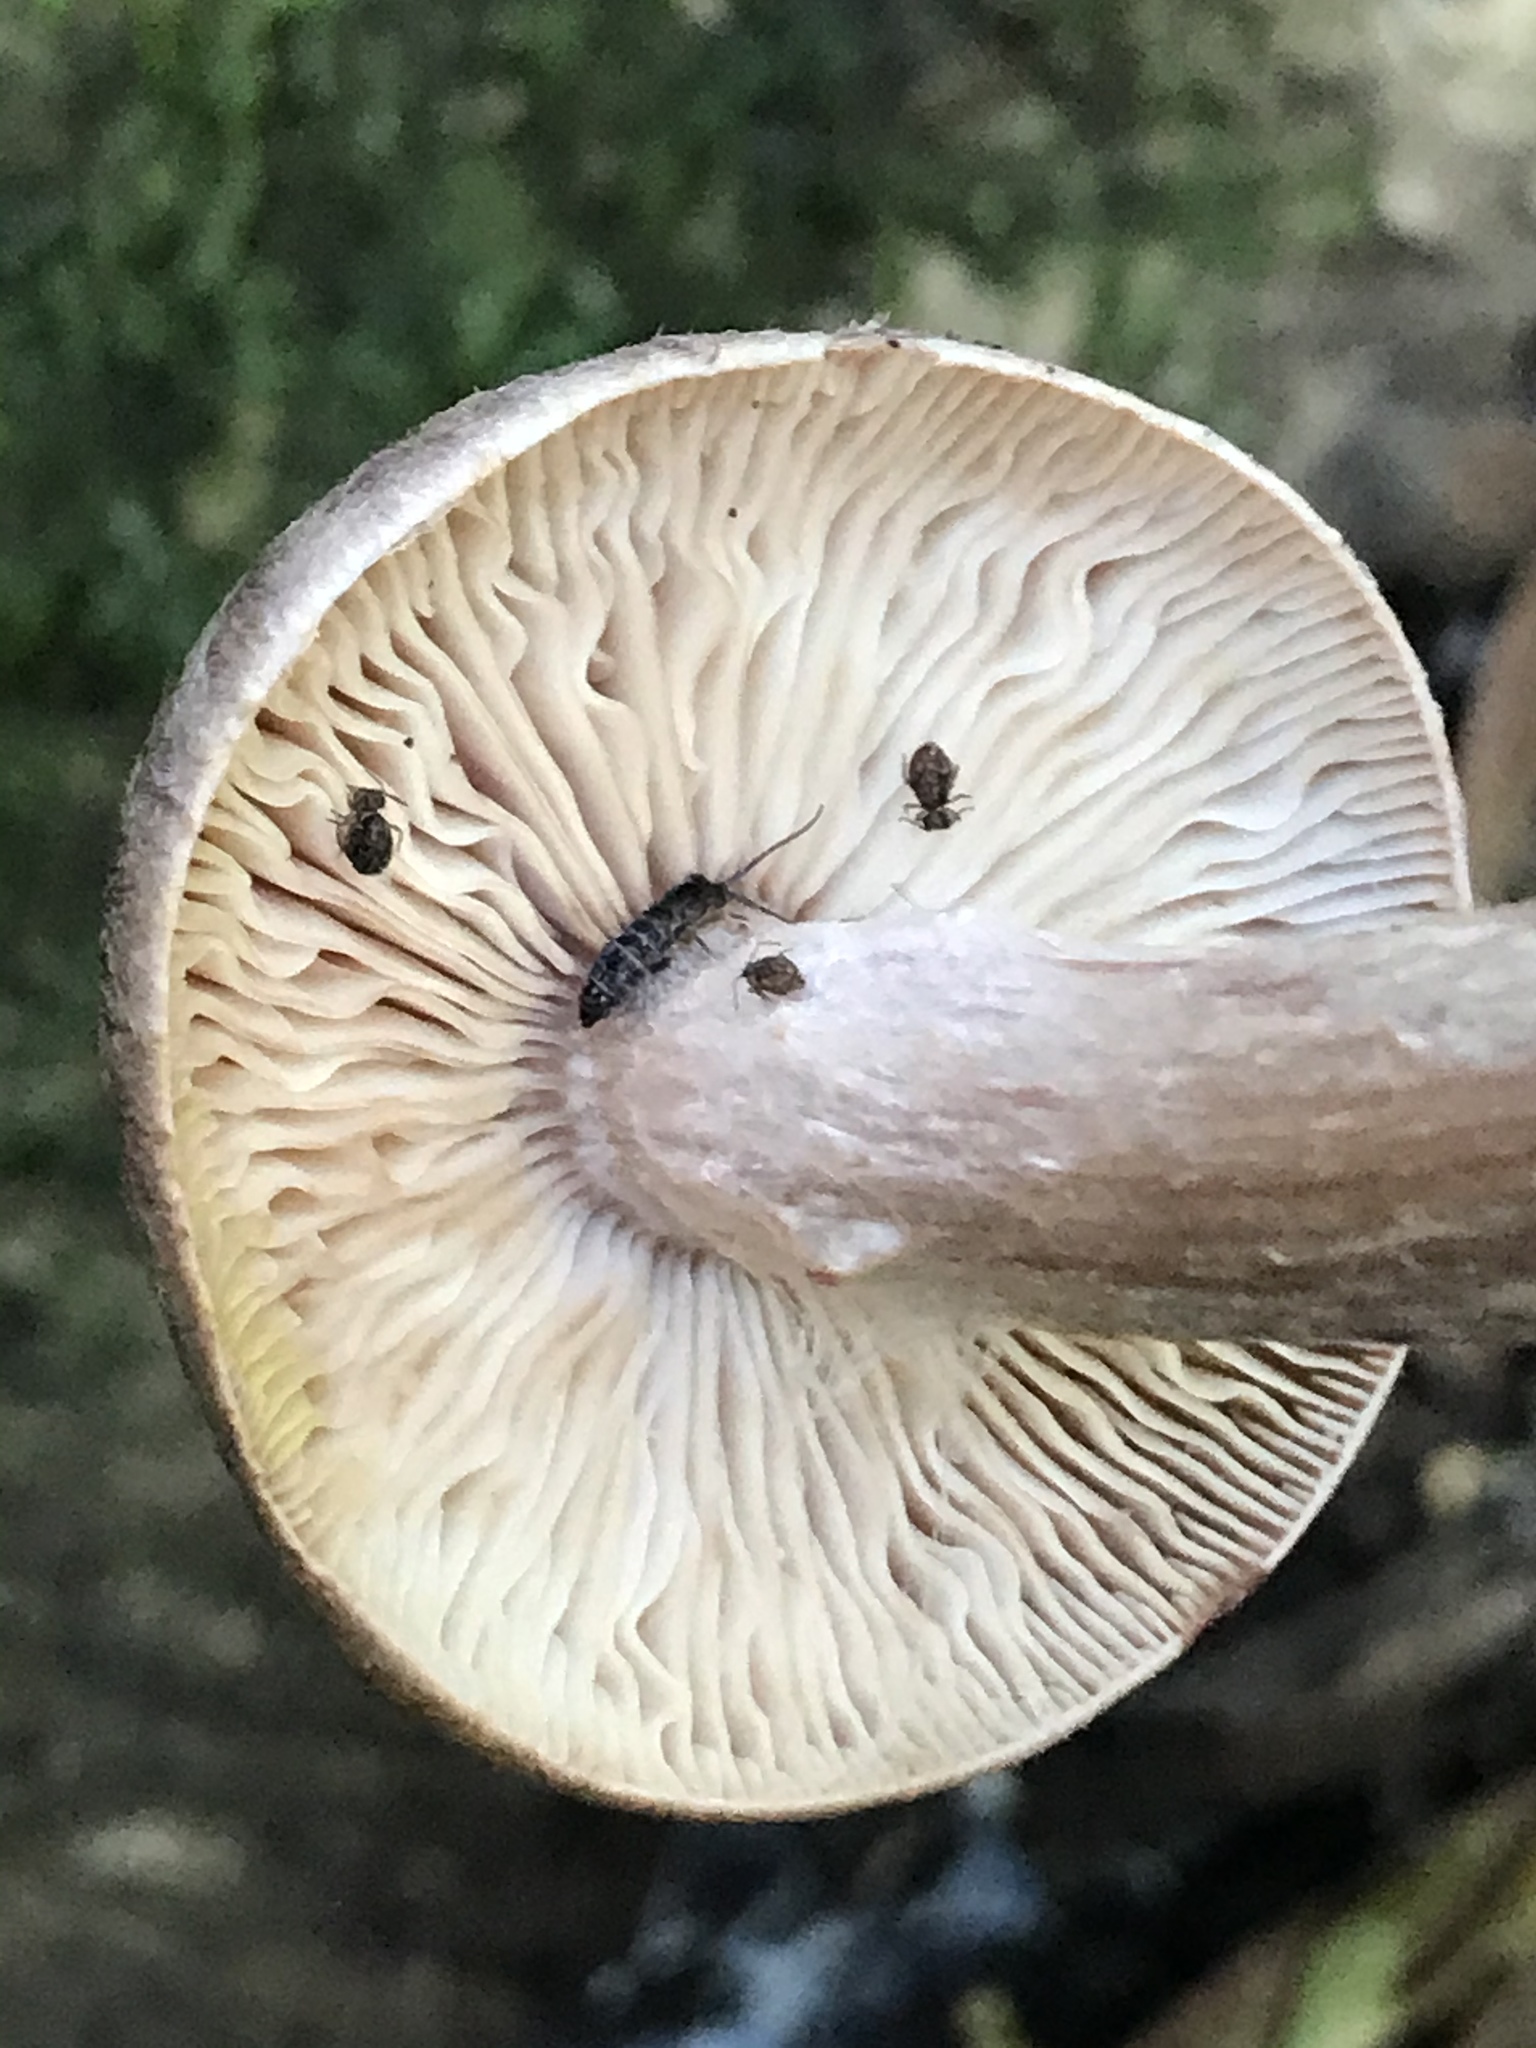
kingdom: Fungi
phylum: Basidiomycota
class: Agaricomycetes
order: Agaricales
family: Physalacriaceae
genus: Armillaria
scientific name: Armillaria sinapina
